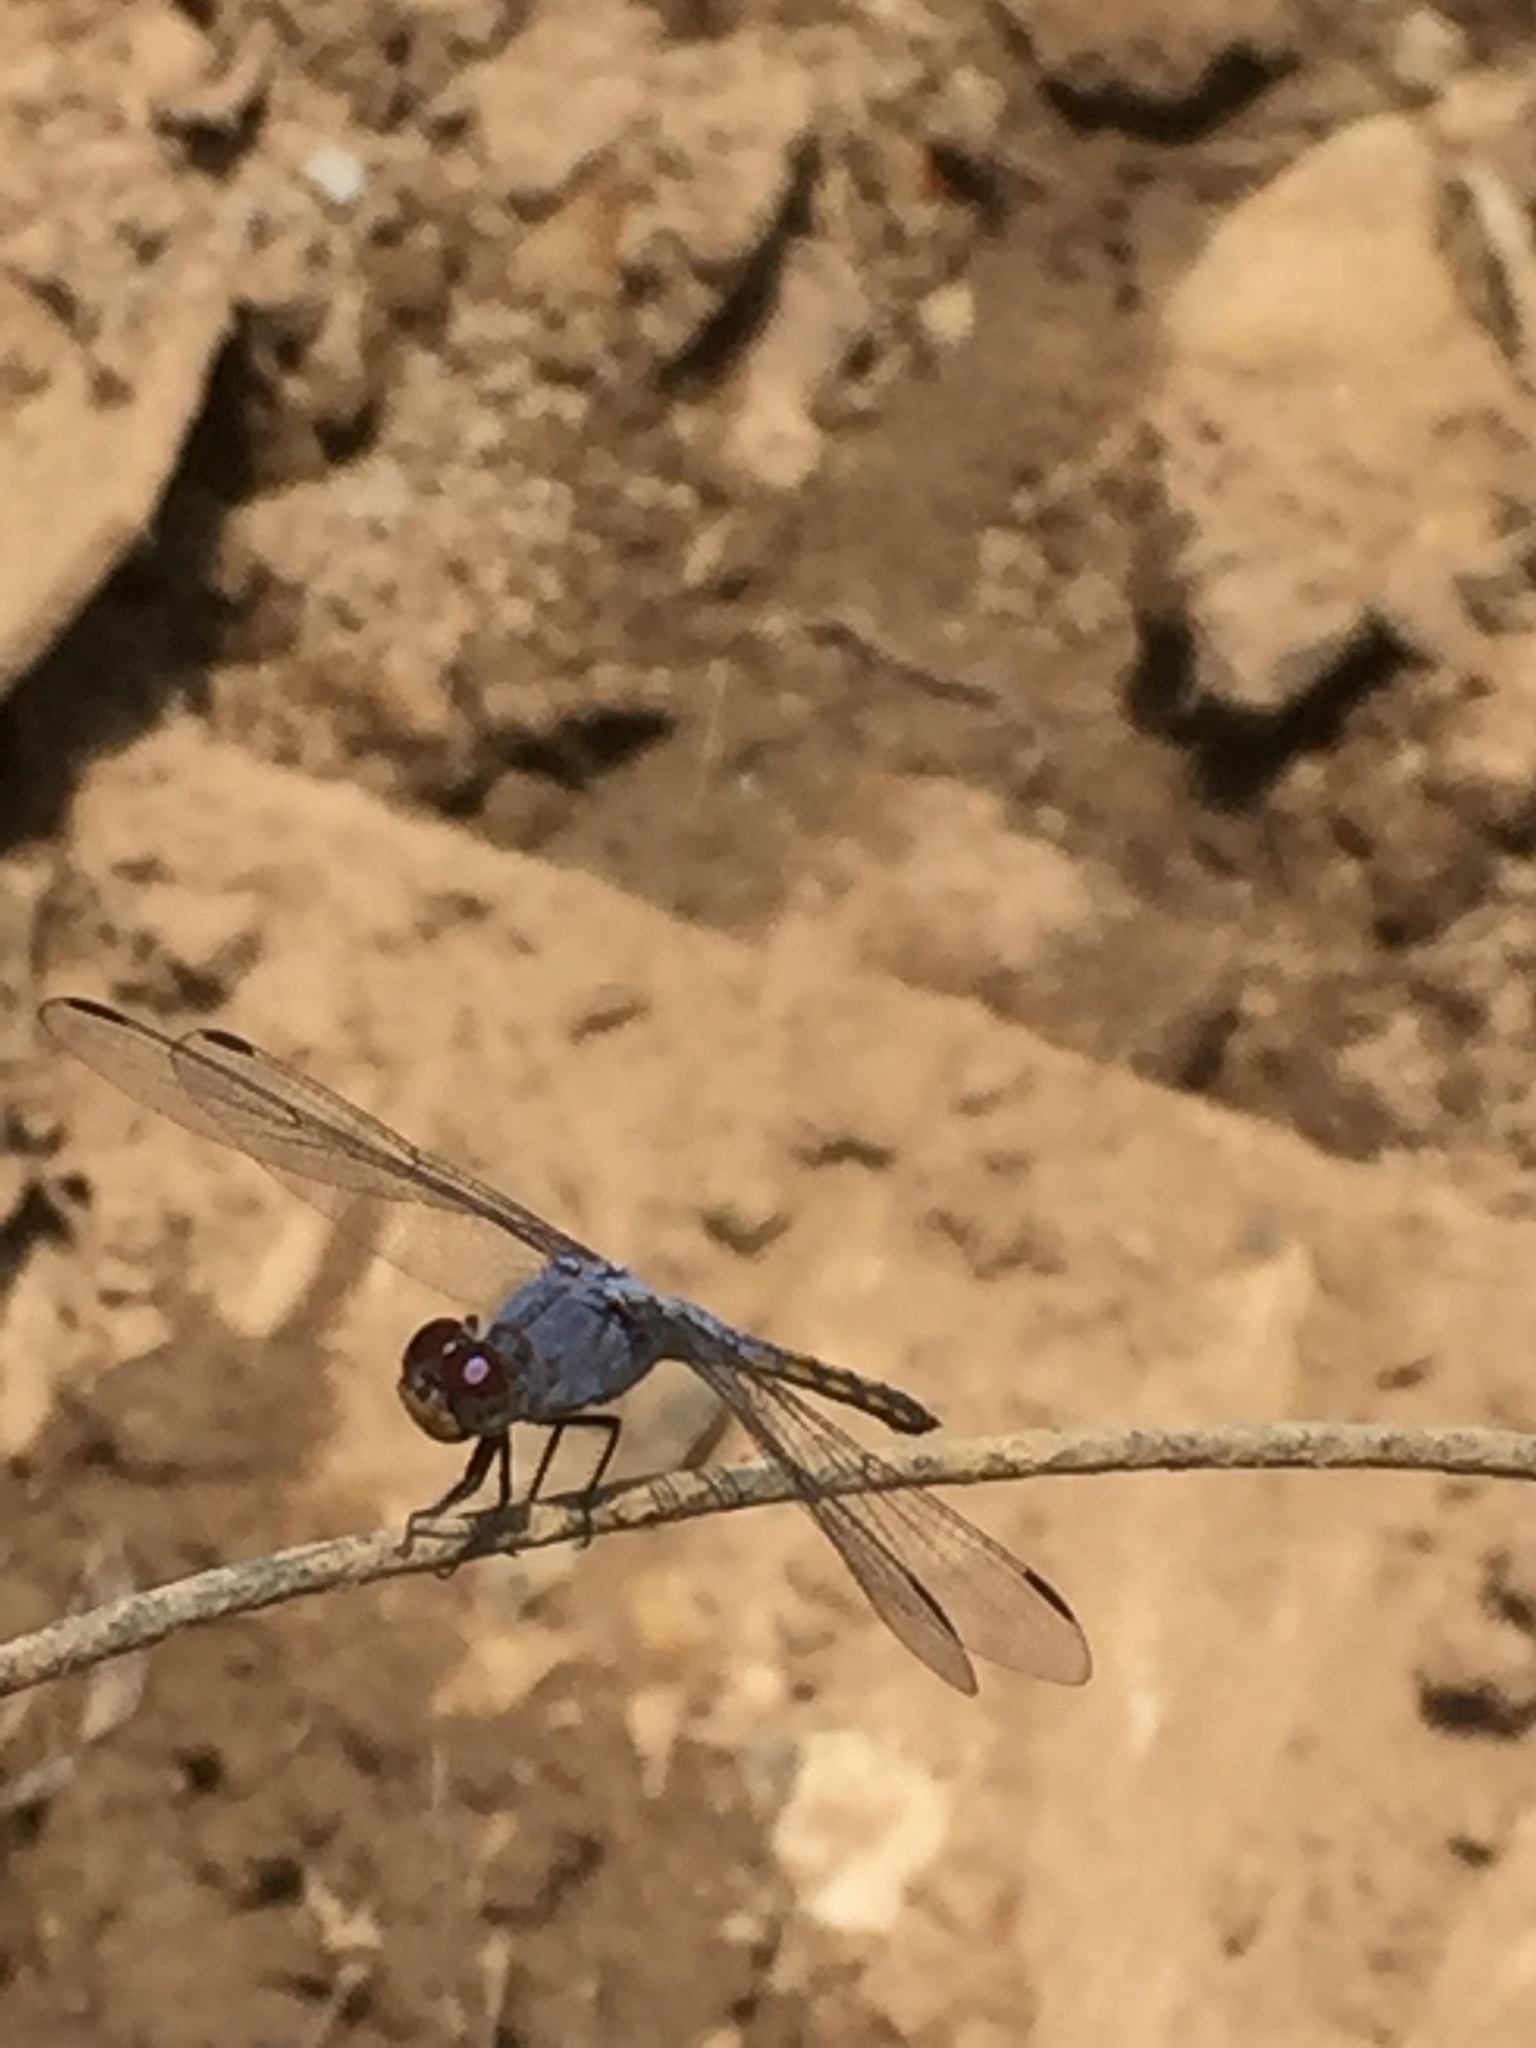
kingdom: Animalia
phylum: Arthropoda
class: Insecta
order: Odonata
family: Libellulidae
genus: Potamarcha
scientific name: Potamarcha congener
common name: Blue chaser
